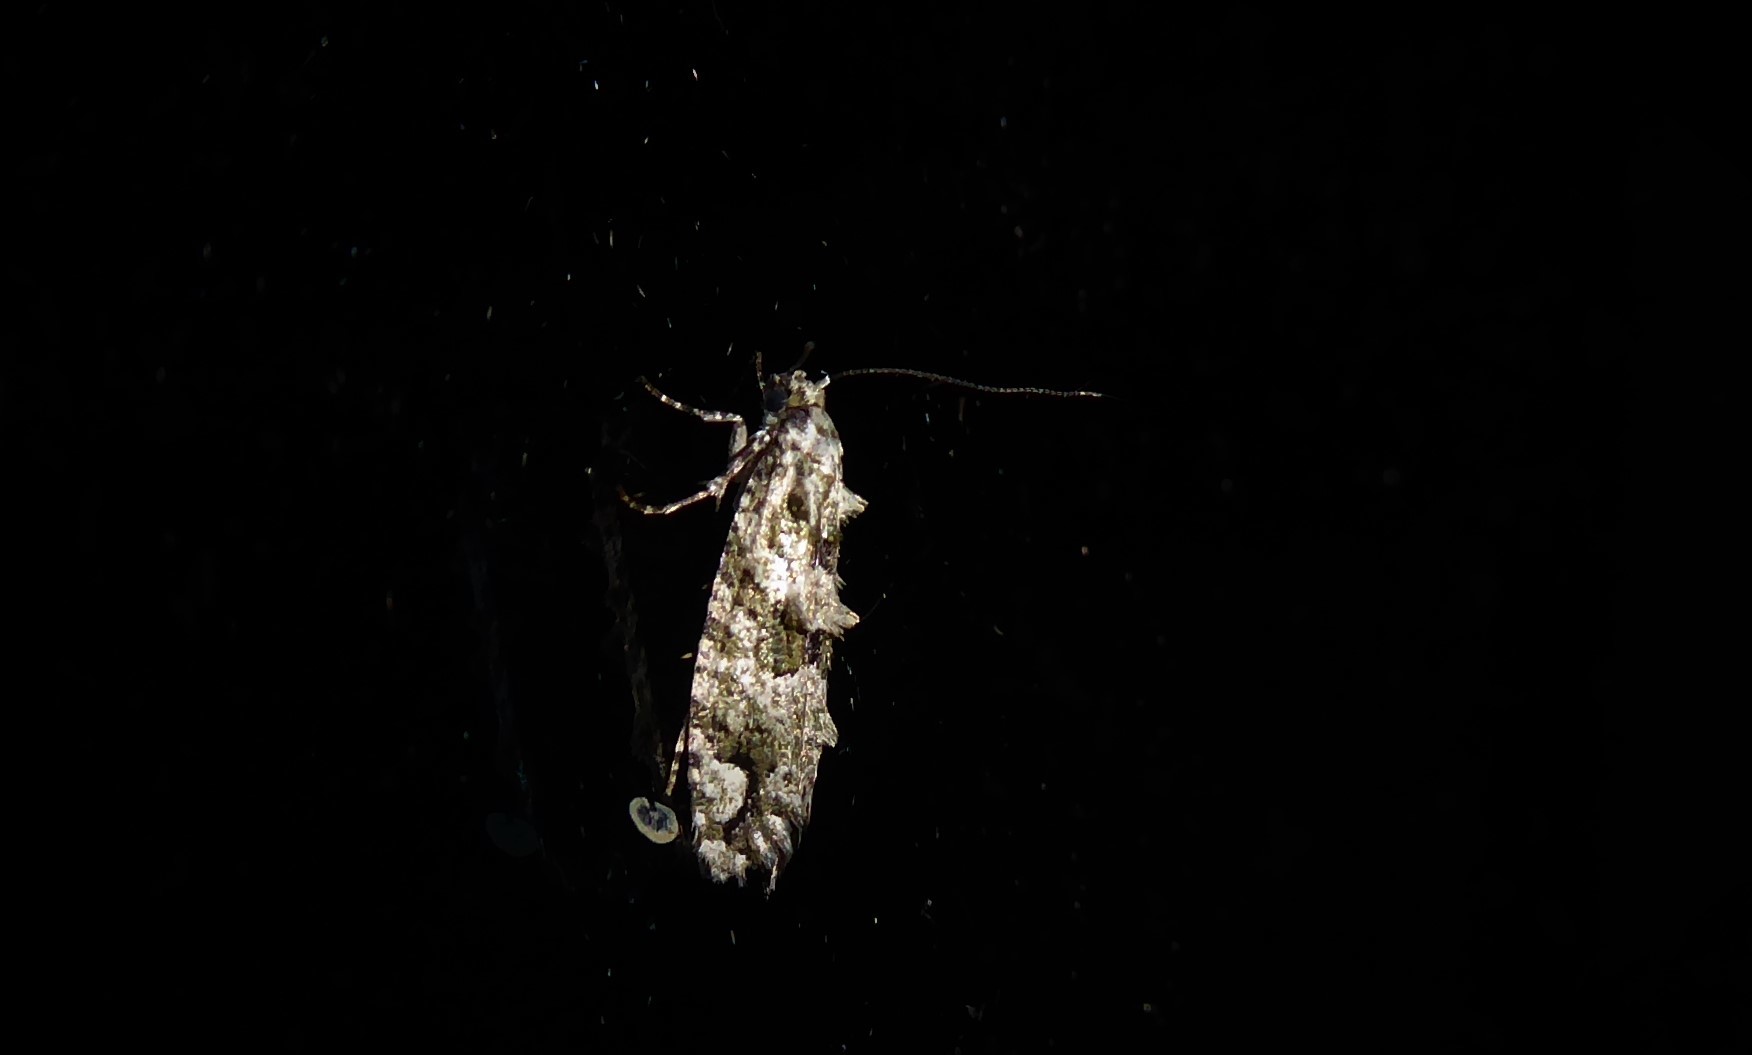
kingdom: Animalia
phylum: Arthropoda
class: Insecta
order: Lepidoptera
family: Tineidae
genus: Lysiphragma
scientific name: Lysiphragma howesii
